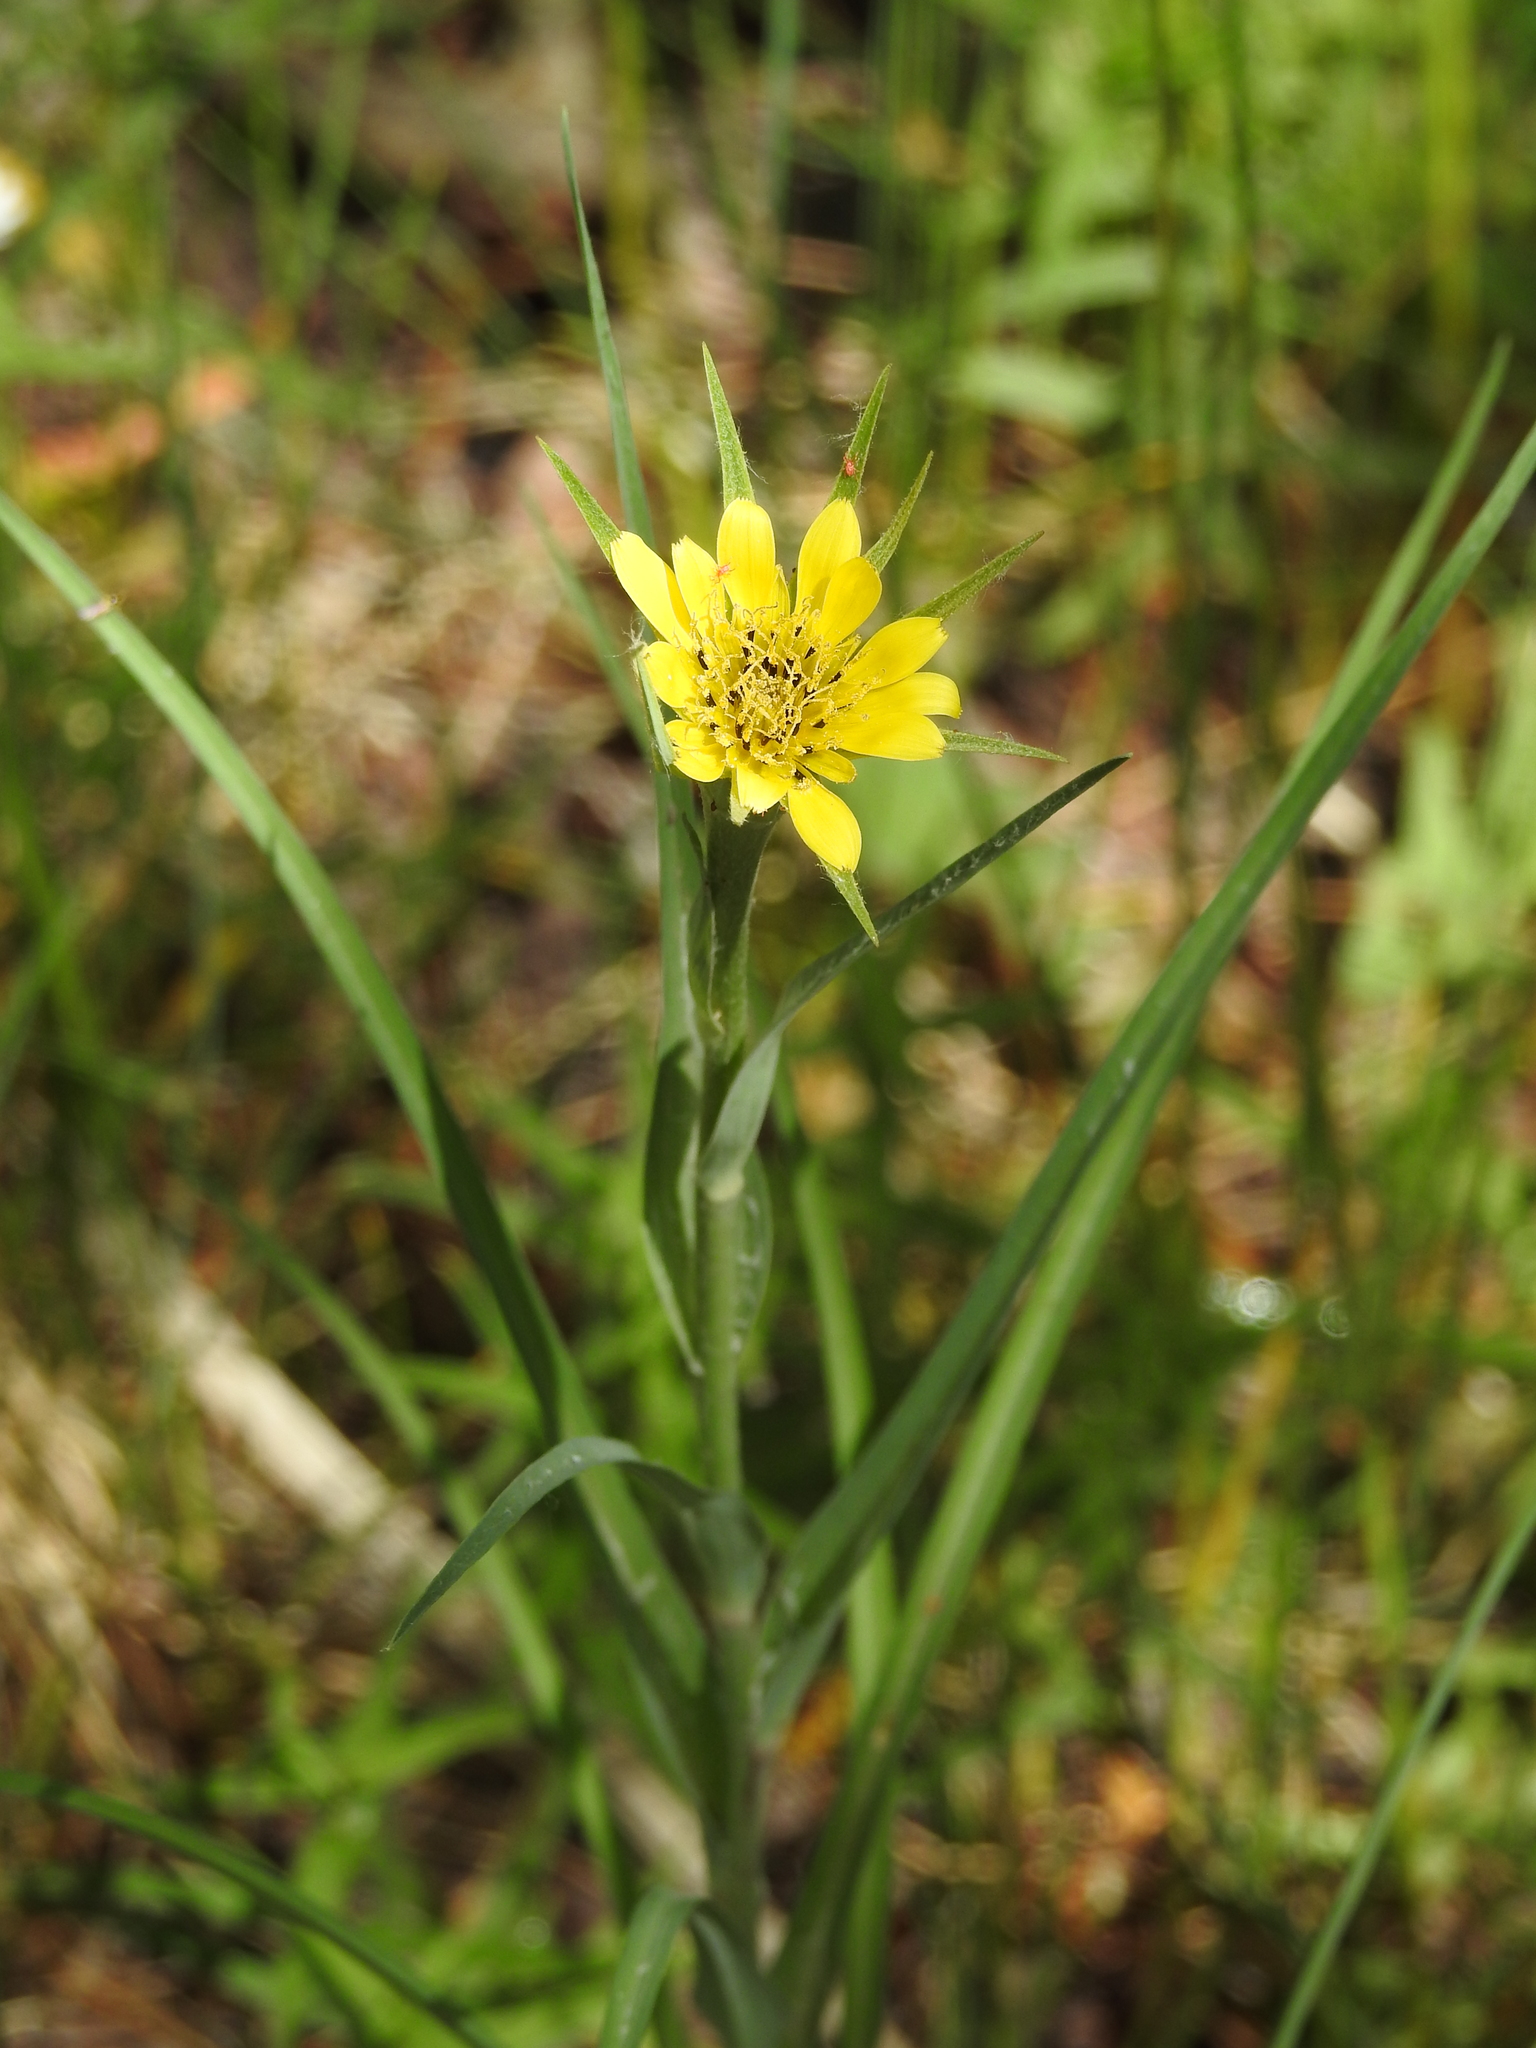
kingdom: Plantae
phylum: Tracheophyta
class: Magnoliopsida
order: Asterales
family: Asteraceae
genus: Tragopogon
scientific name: Tragopogon dubius
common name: Yellow salsify
